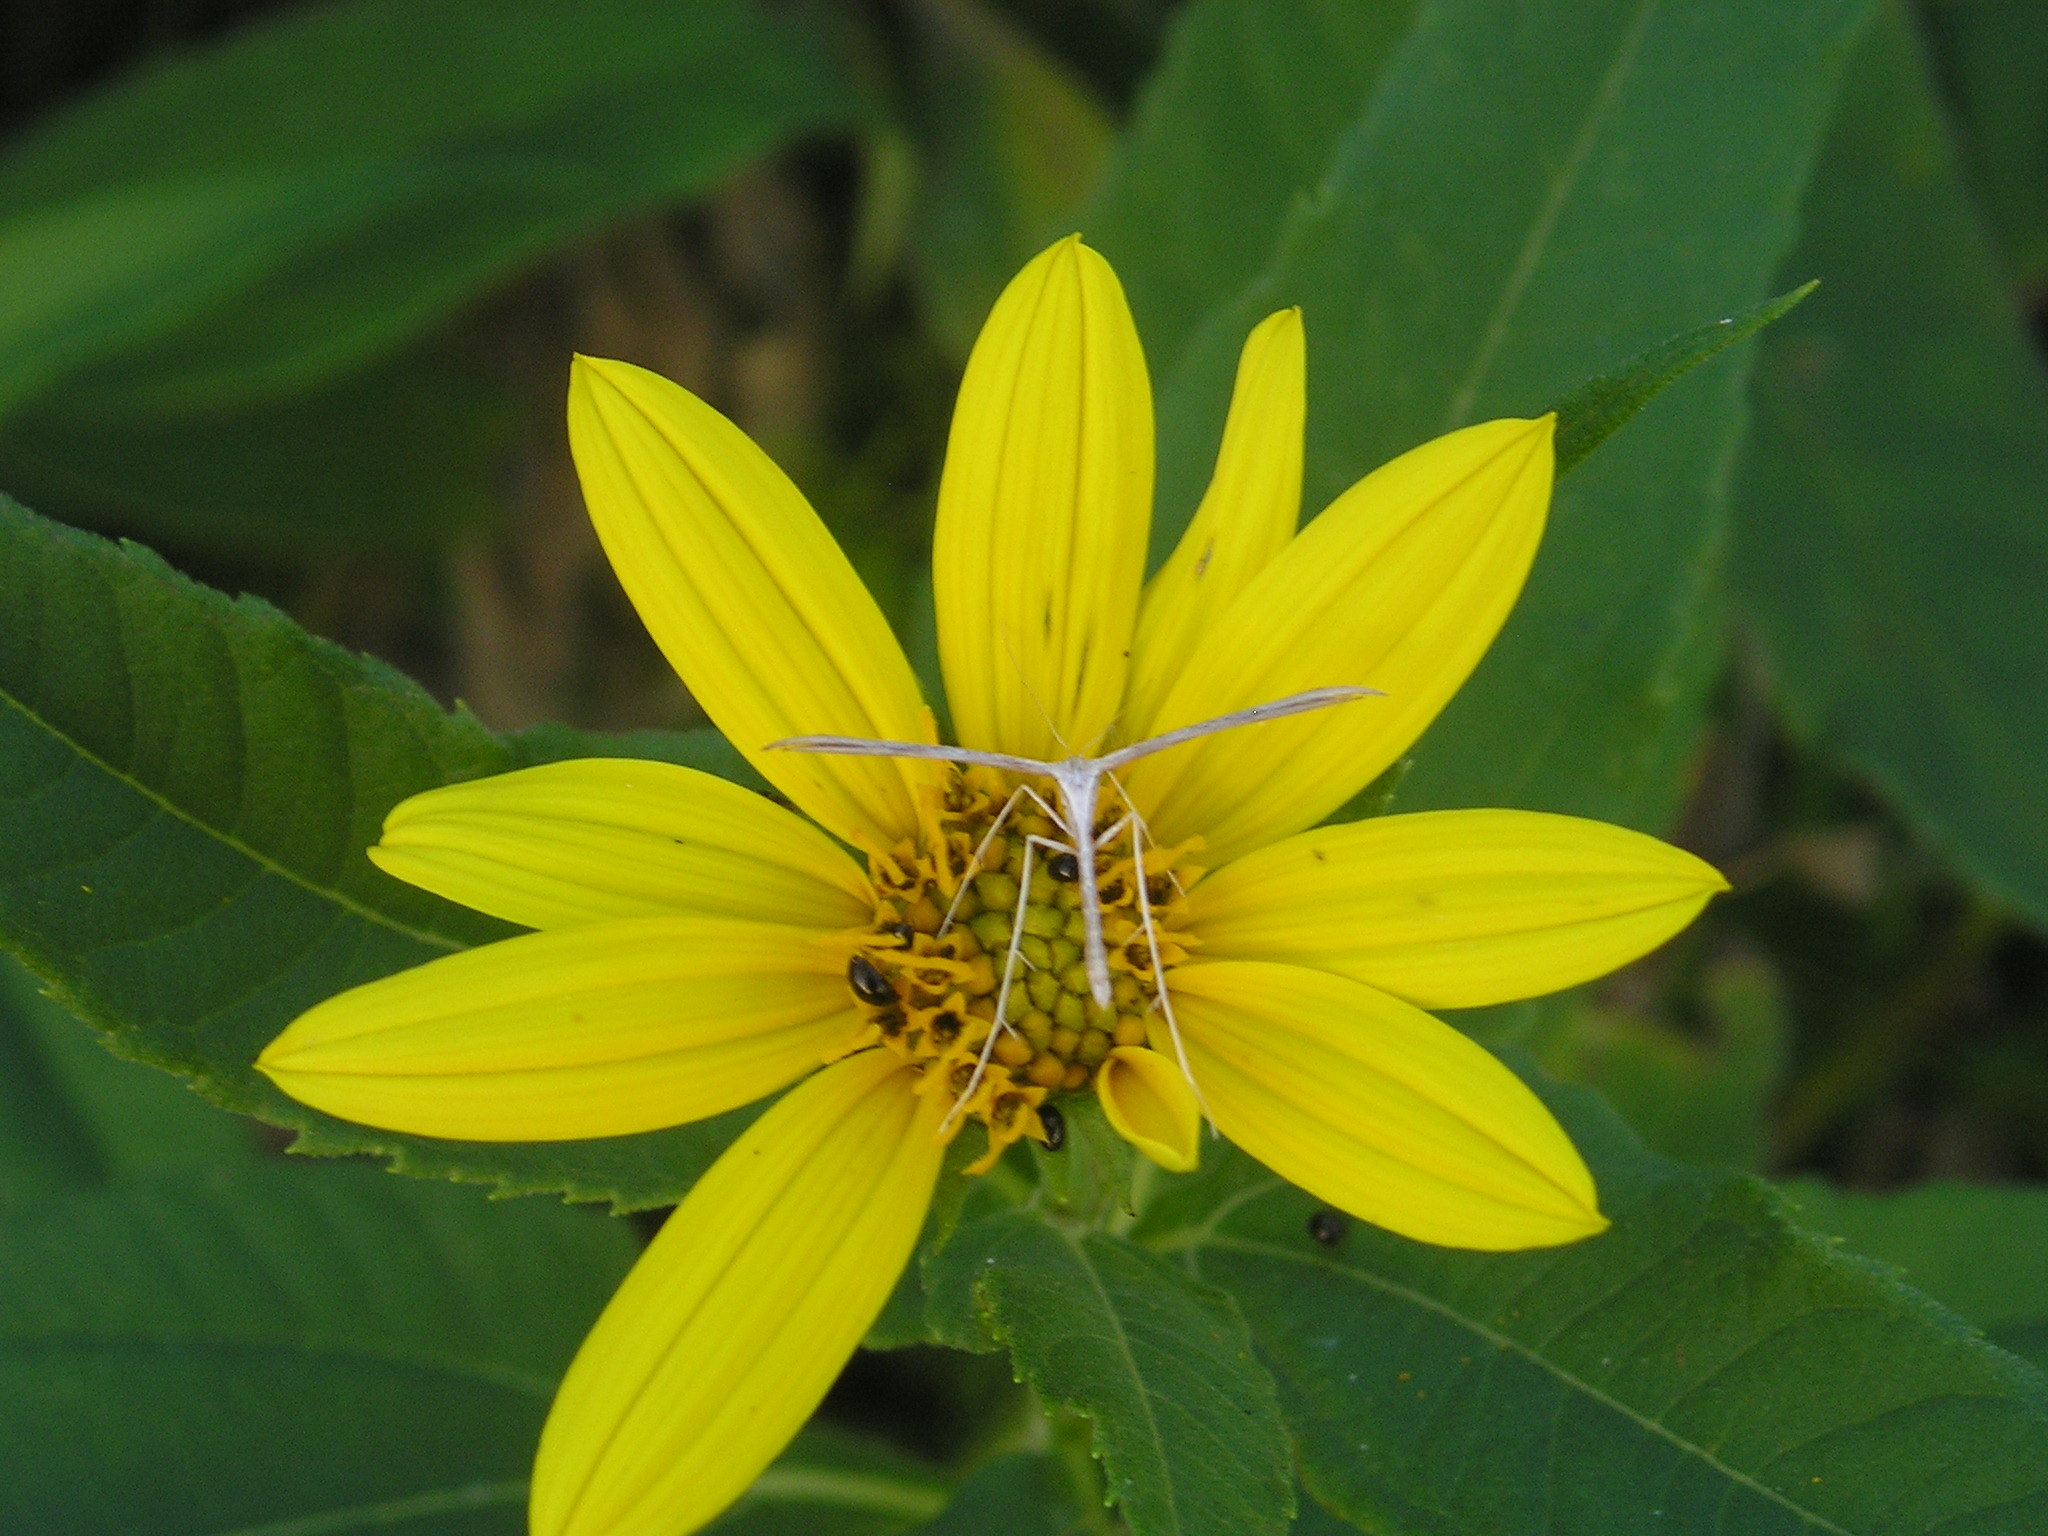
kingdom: Animalia
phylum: Arthropoda
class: Insecta
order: Lepidoptera
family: Pterophoridae
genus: Emmelina
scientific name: Emmelina monodactyla
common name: Common plume
